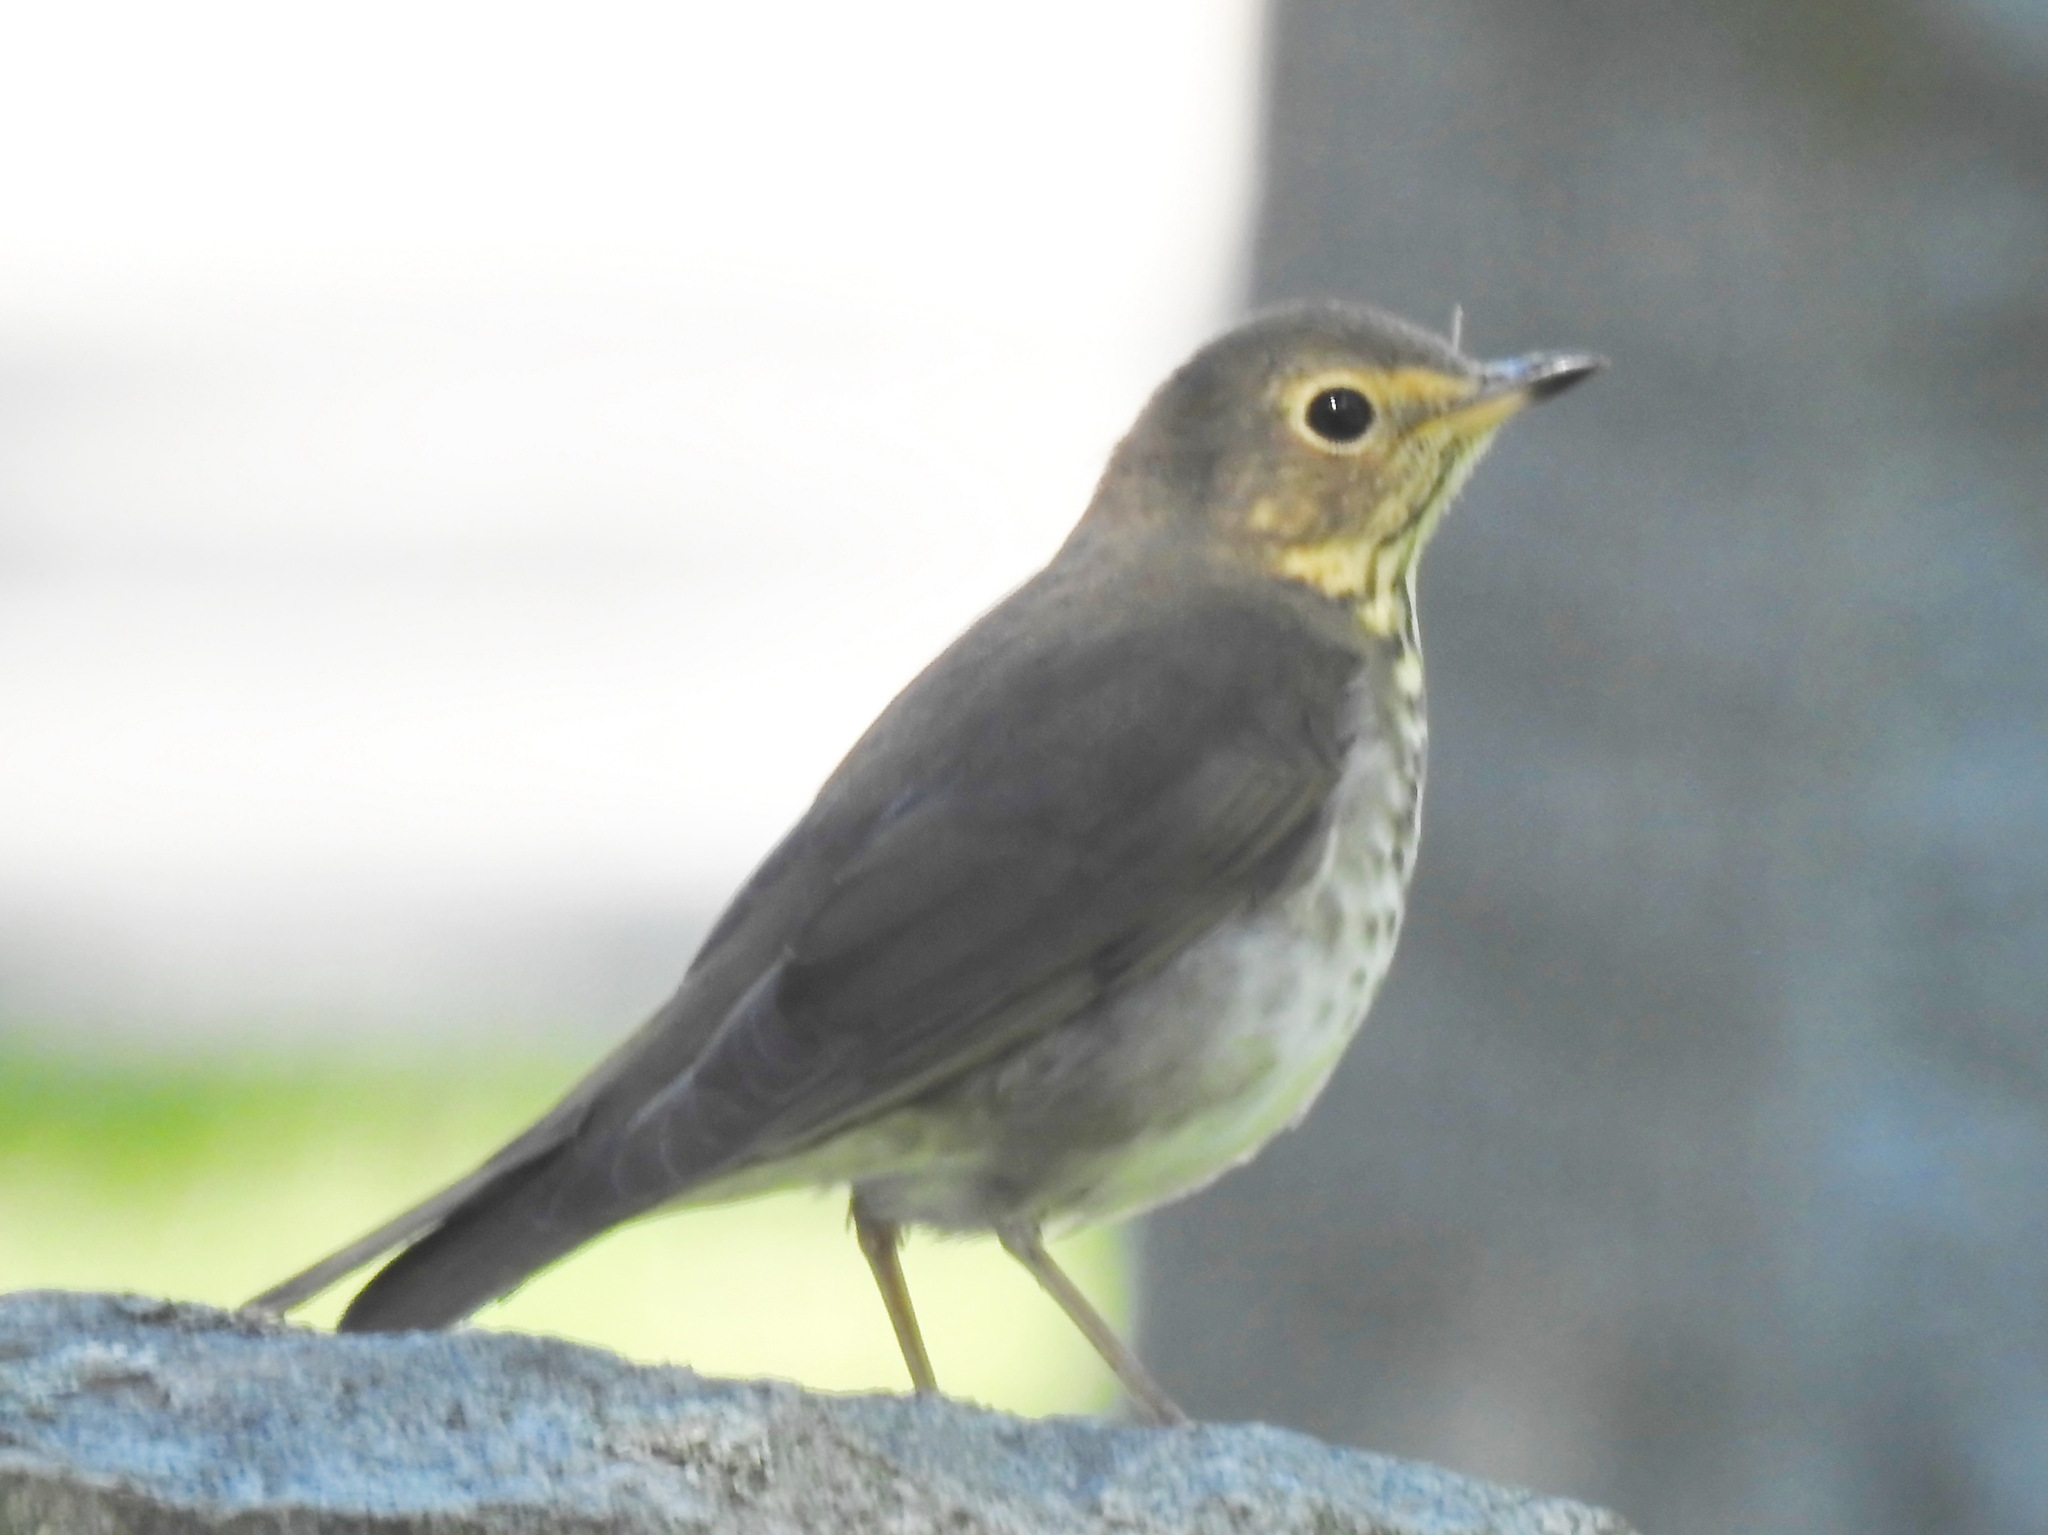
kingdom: Animalia
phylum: Chordata
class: Aves
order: Passeriformes
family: Turdidae
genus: Catharus
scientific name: Catharus ustulatus
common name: Swainson's thrush
